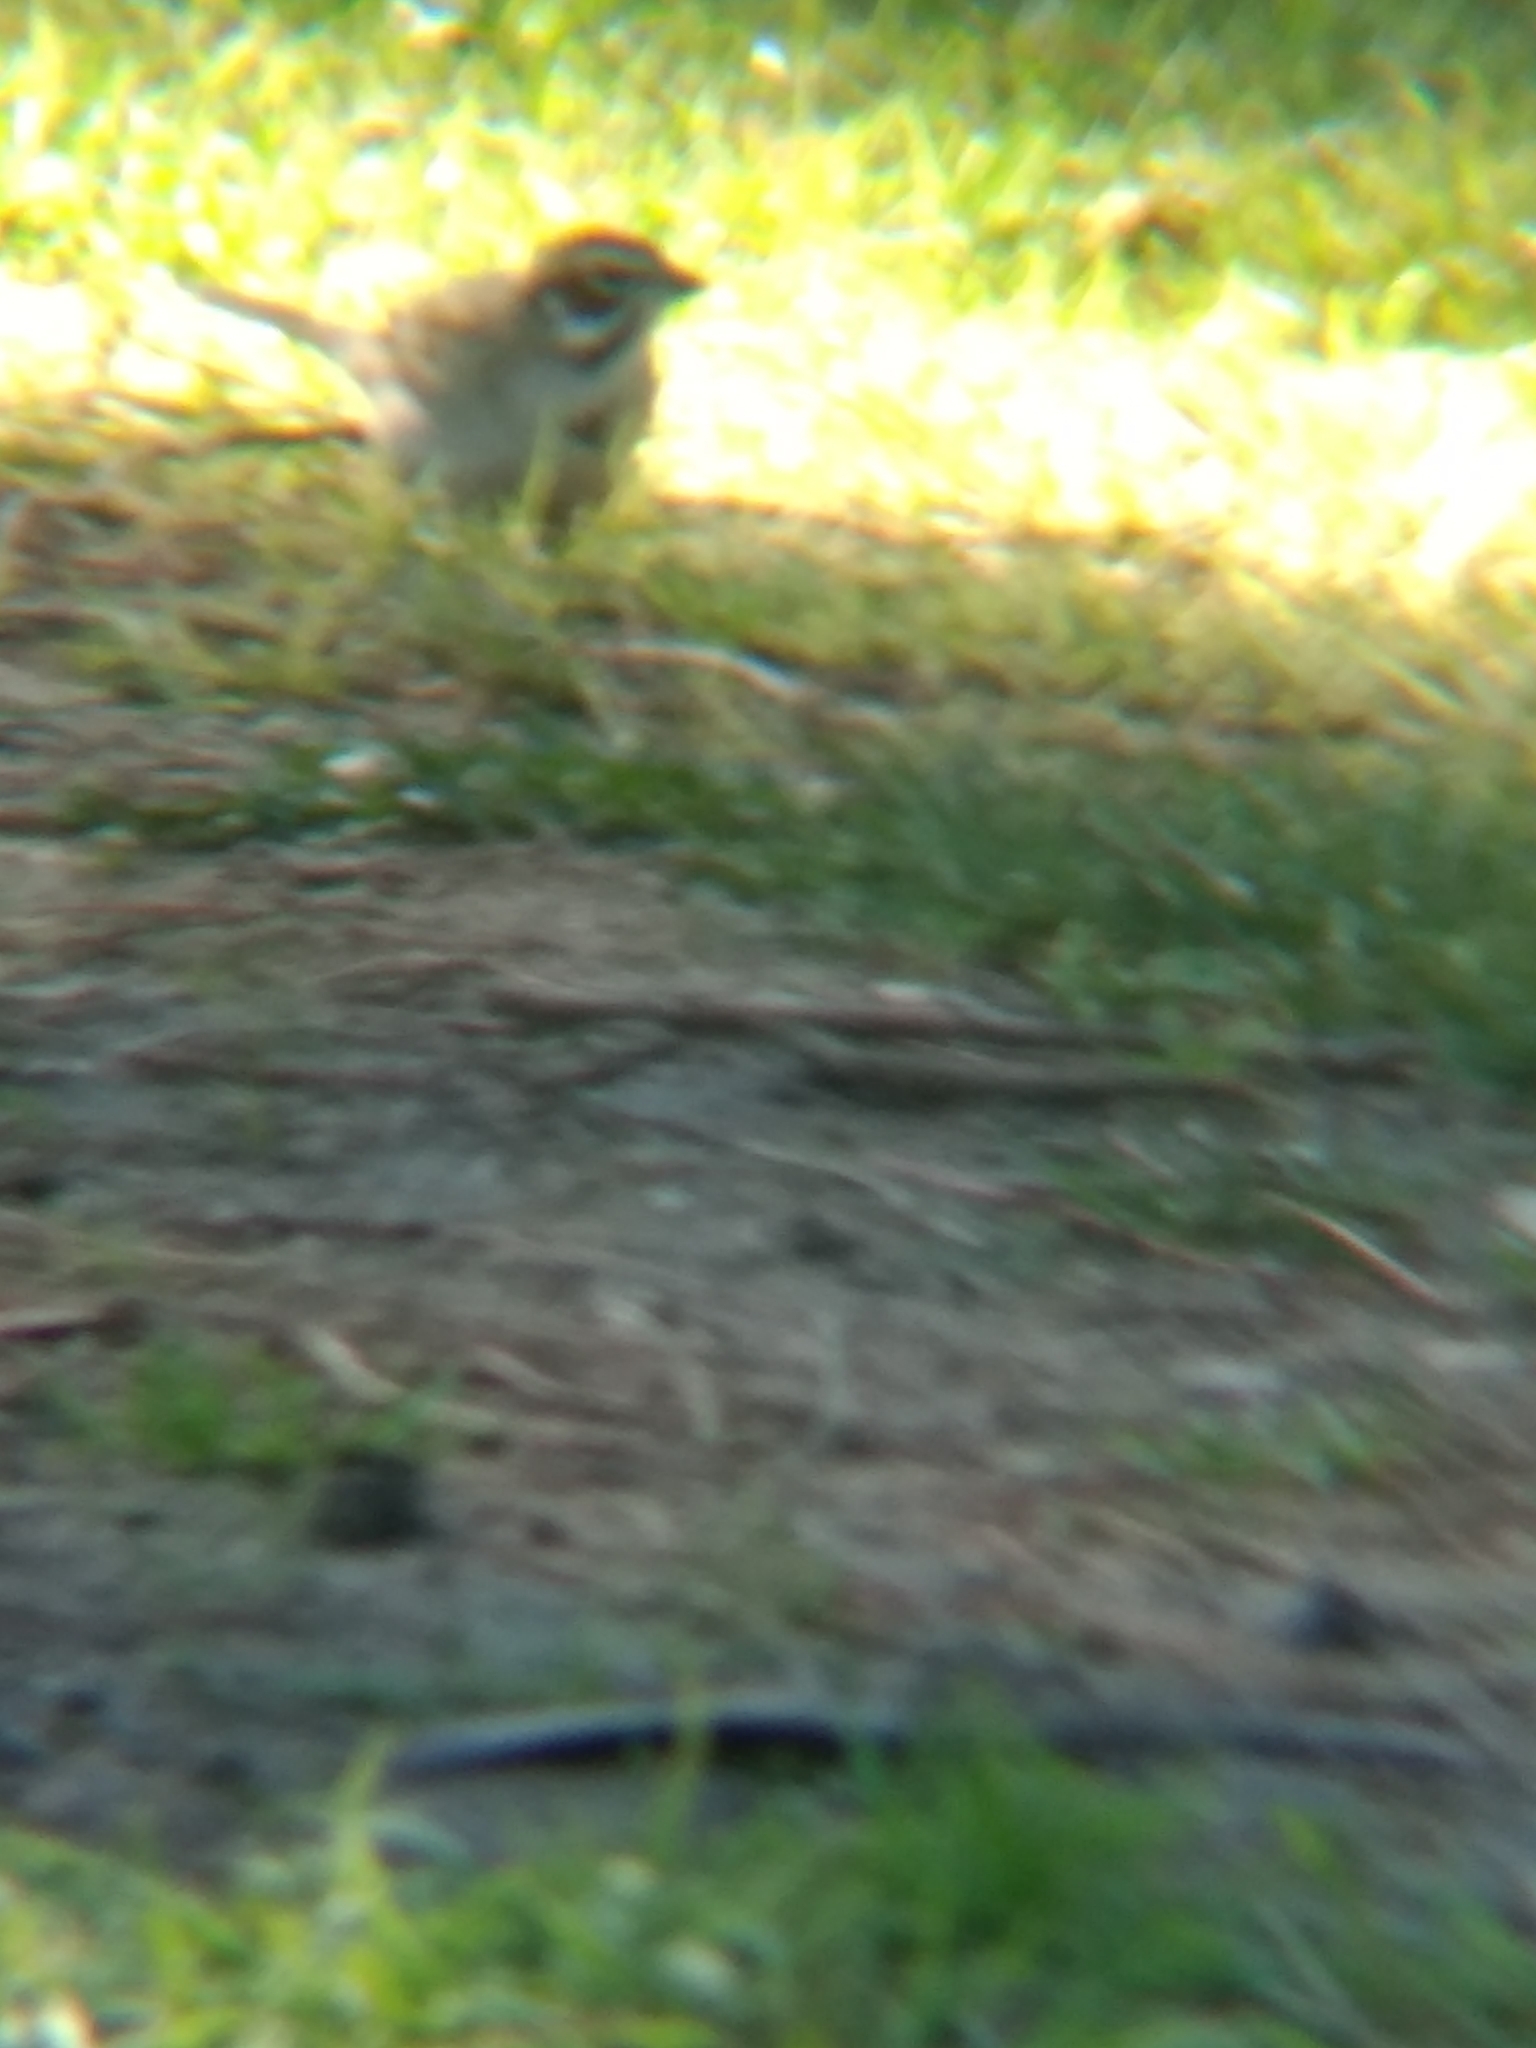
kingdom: Animalia
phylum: Chordata
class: Aves
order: Passeriformes
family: Passerellidae
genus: Chondestes
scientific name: Chondestes grammacus
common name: Lark sparrow
